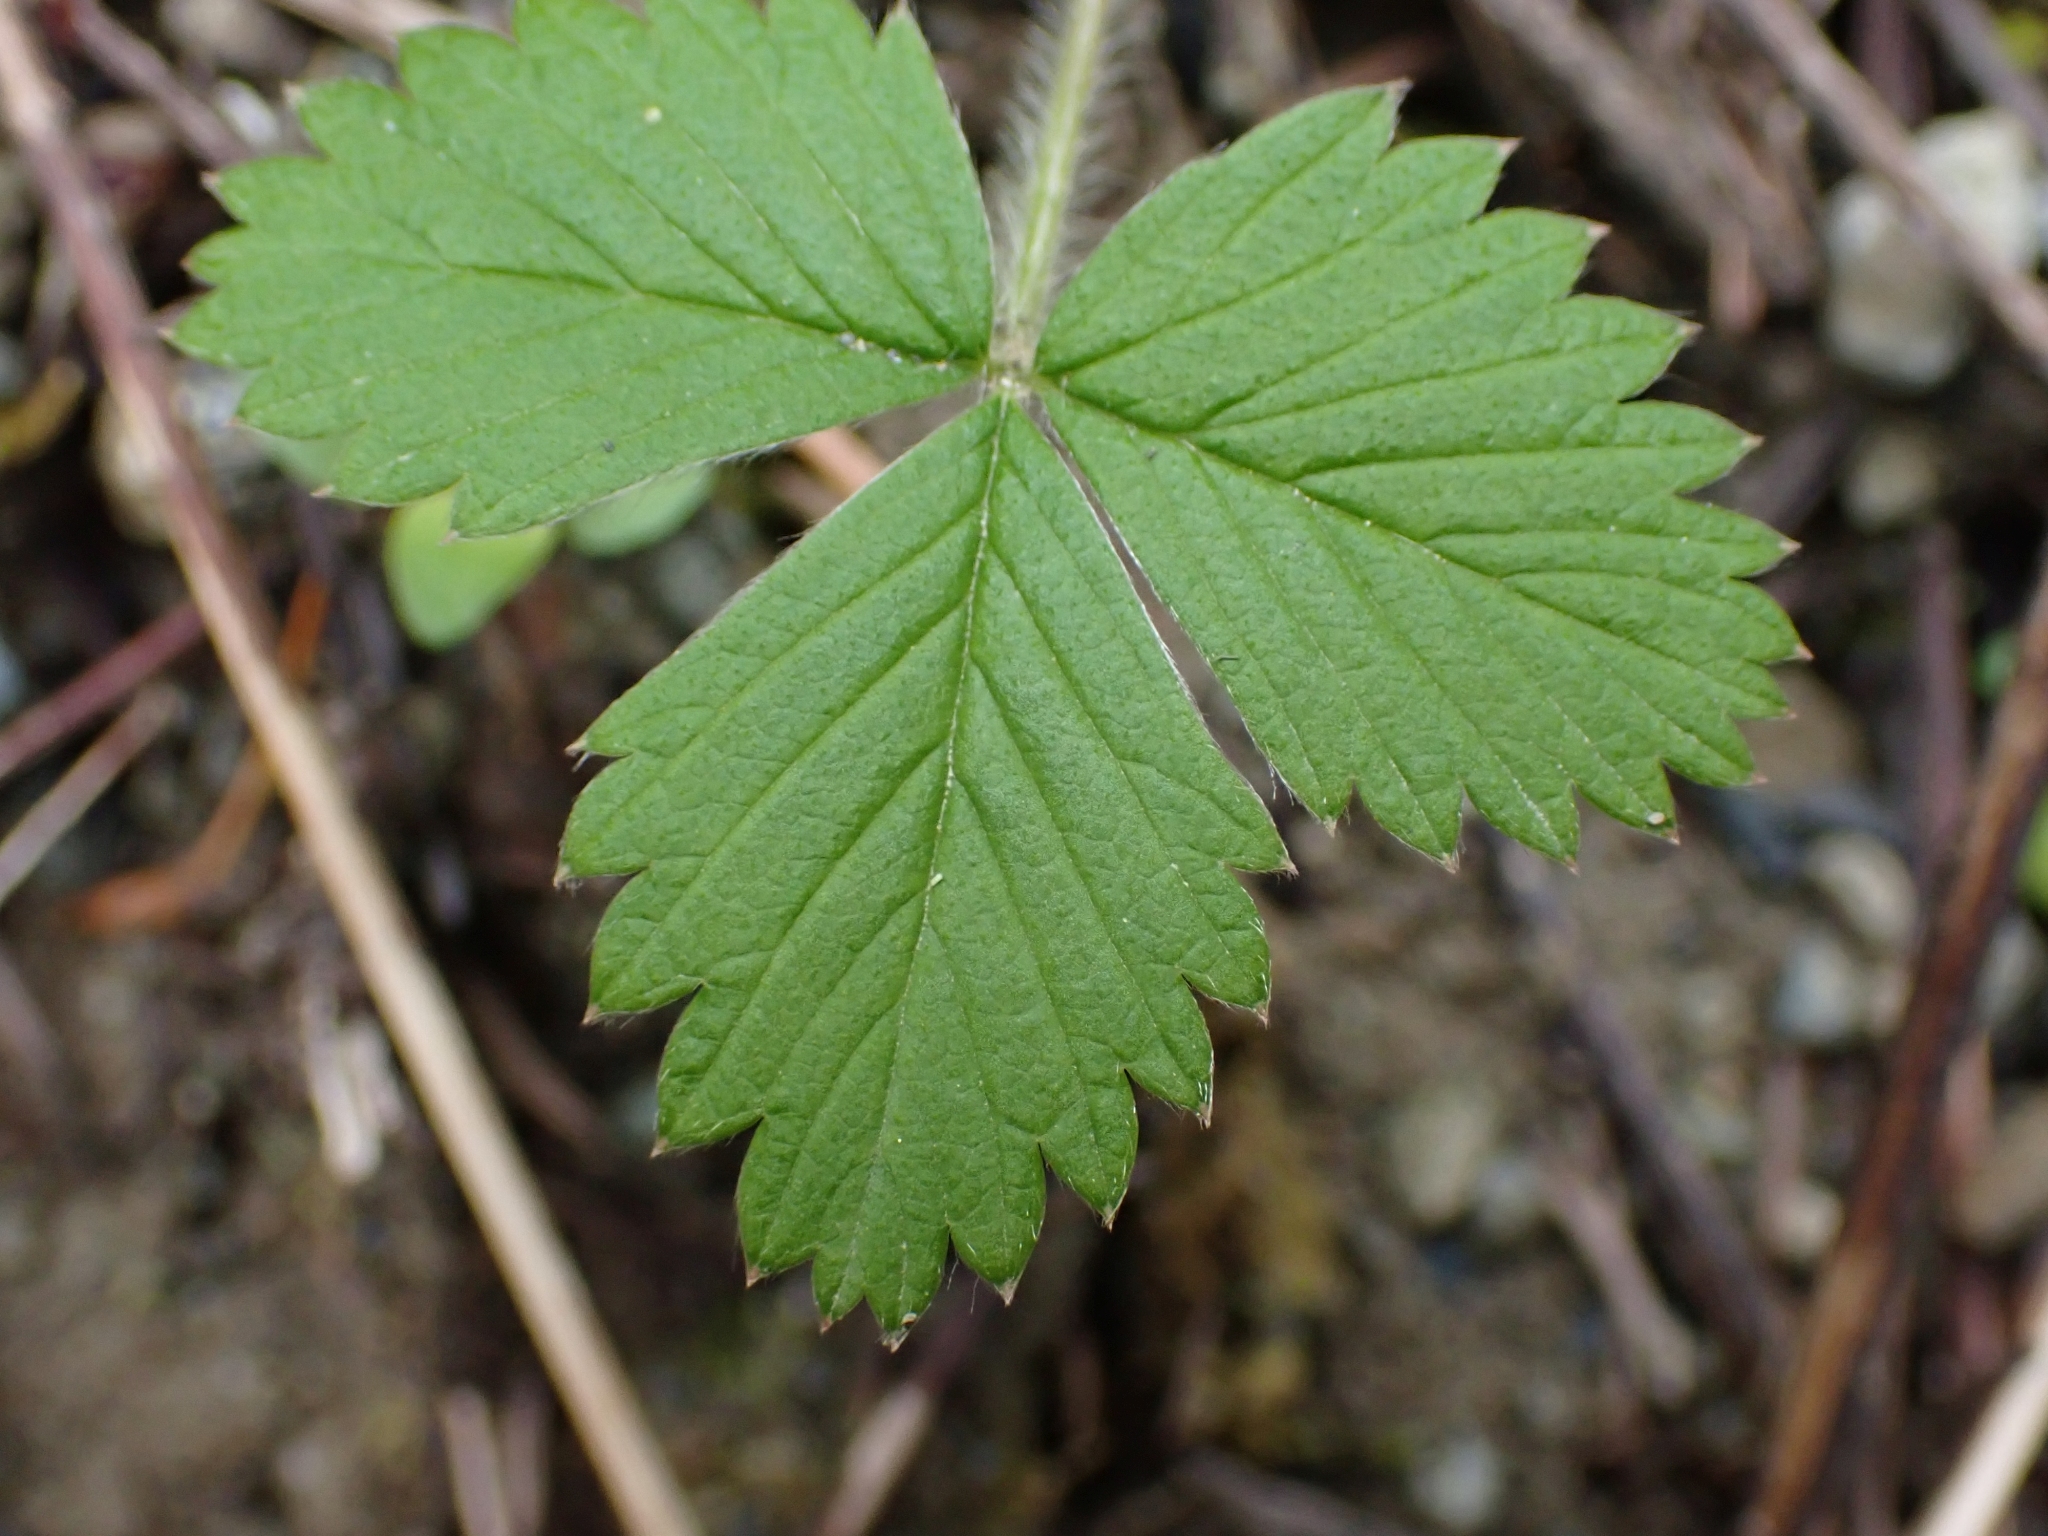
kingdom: Plantae
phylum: Tracheophyta
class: Magnoliopsida
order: Rosales
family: Rosaceae
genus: Fragaria
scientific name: Fragaria vesca
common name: Wild strawberry
